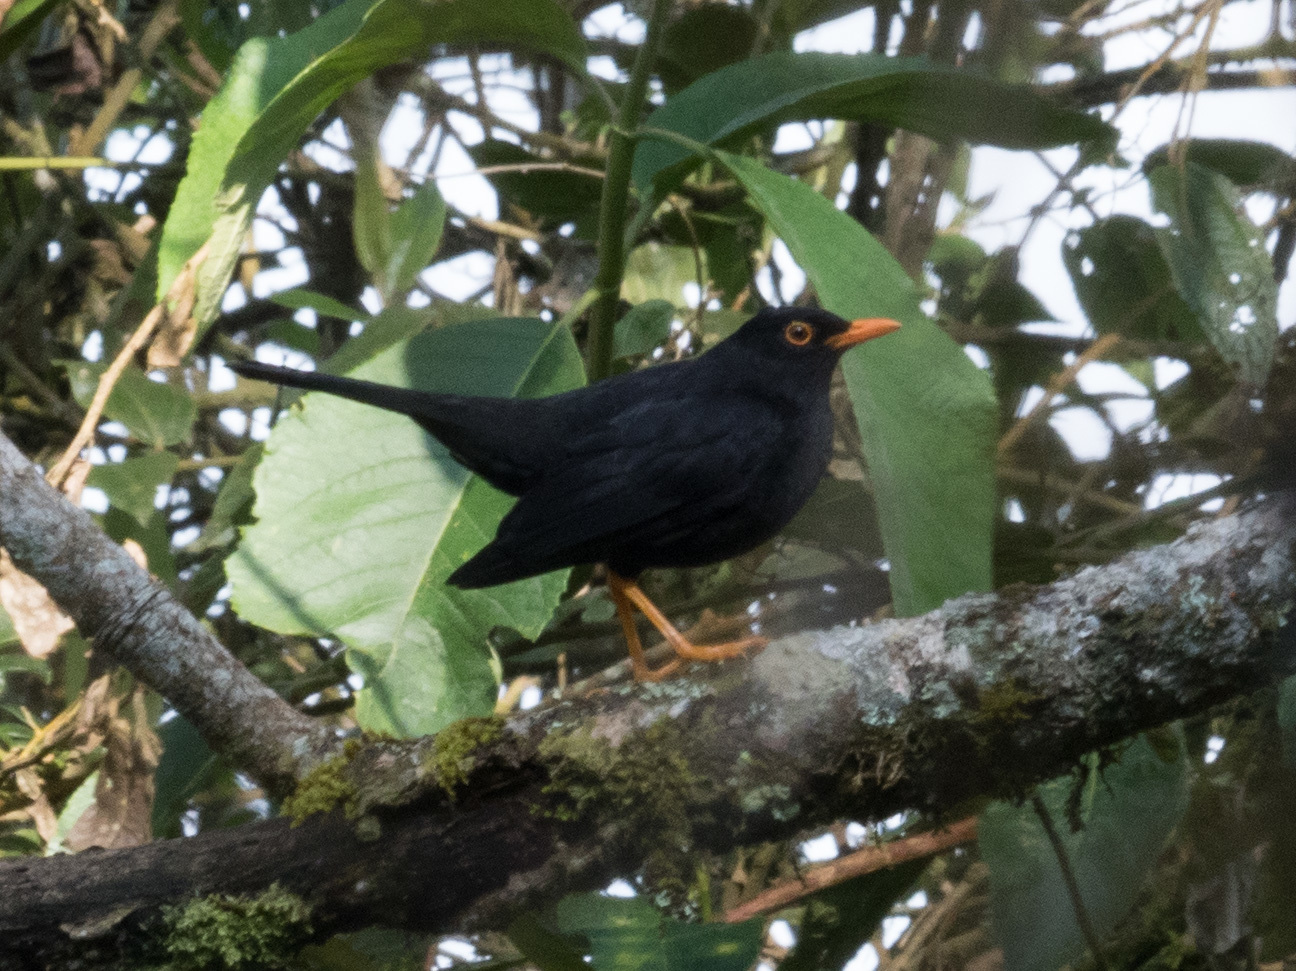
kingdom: Animalia
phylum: Chordata
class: Aves
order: Passeriformes
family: Turdidae
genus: Turdus
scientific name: Turdus fuscater
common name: Great thrush
